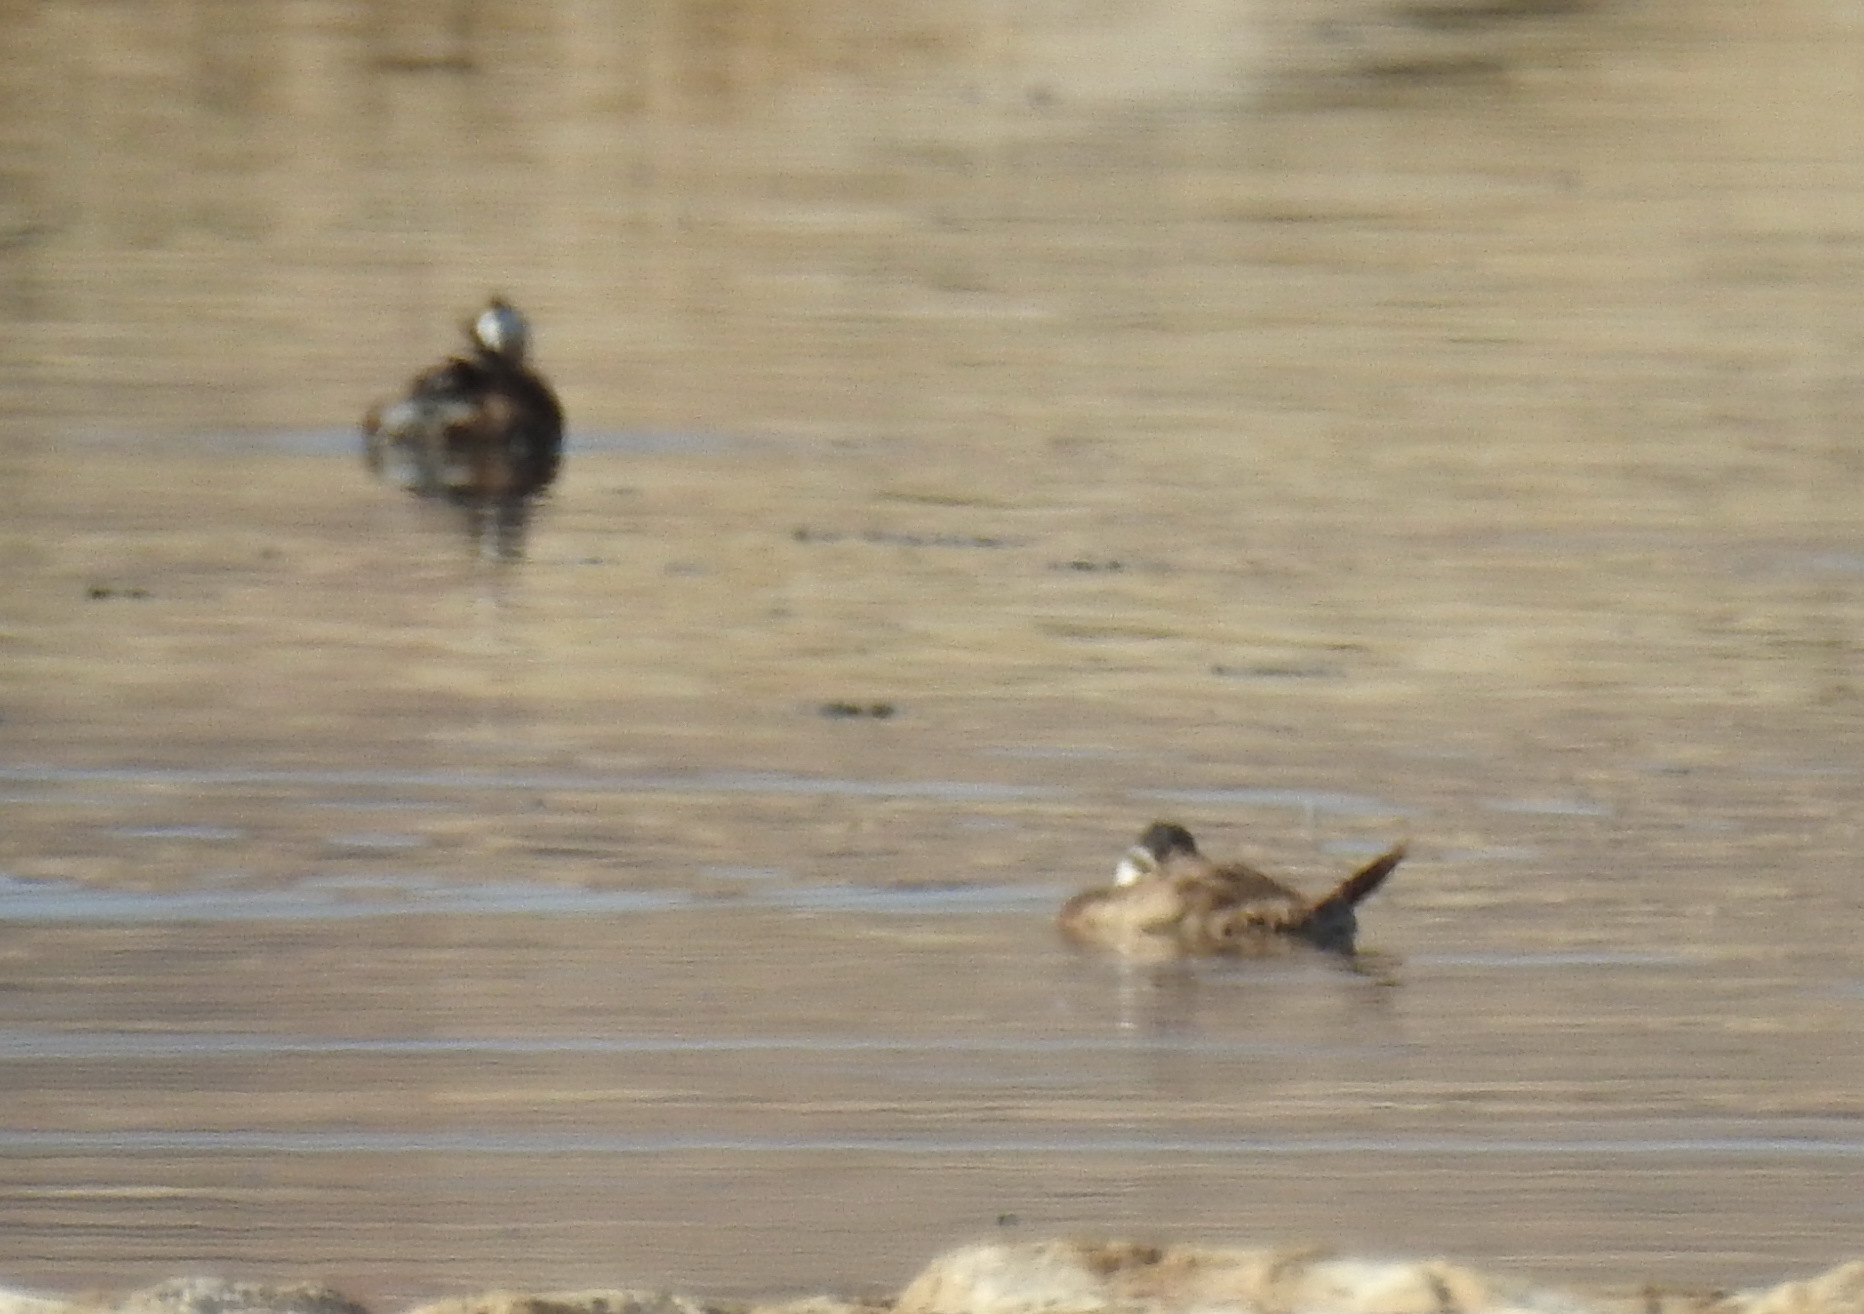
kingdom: Animalia
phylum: Chordata
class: Aves
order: Anseriformes
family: Anatidae
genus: Oxyura
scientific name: Oxyura leucocephala
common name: White-headed duck
